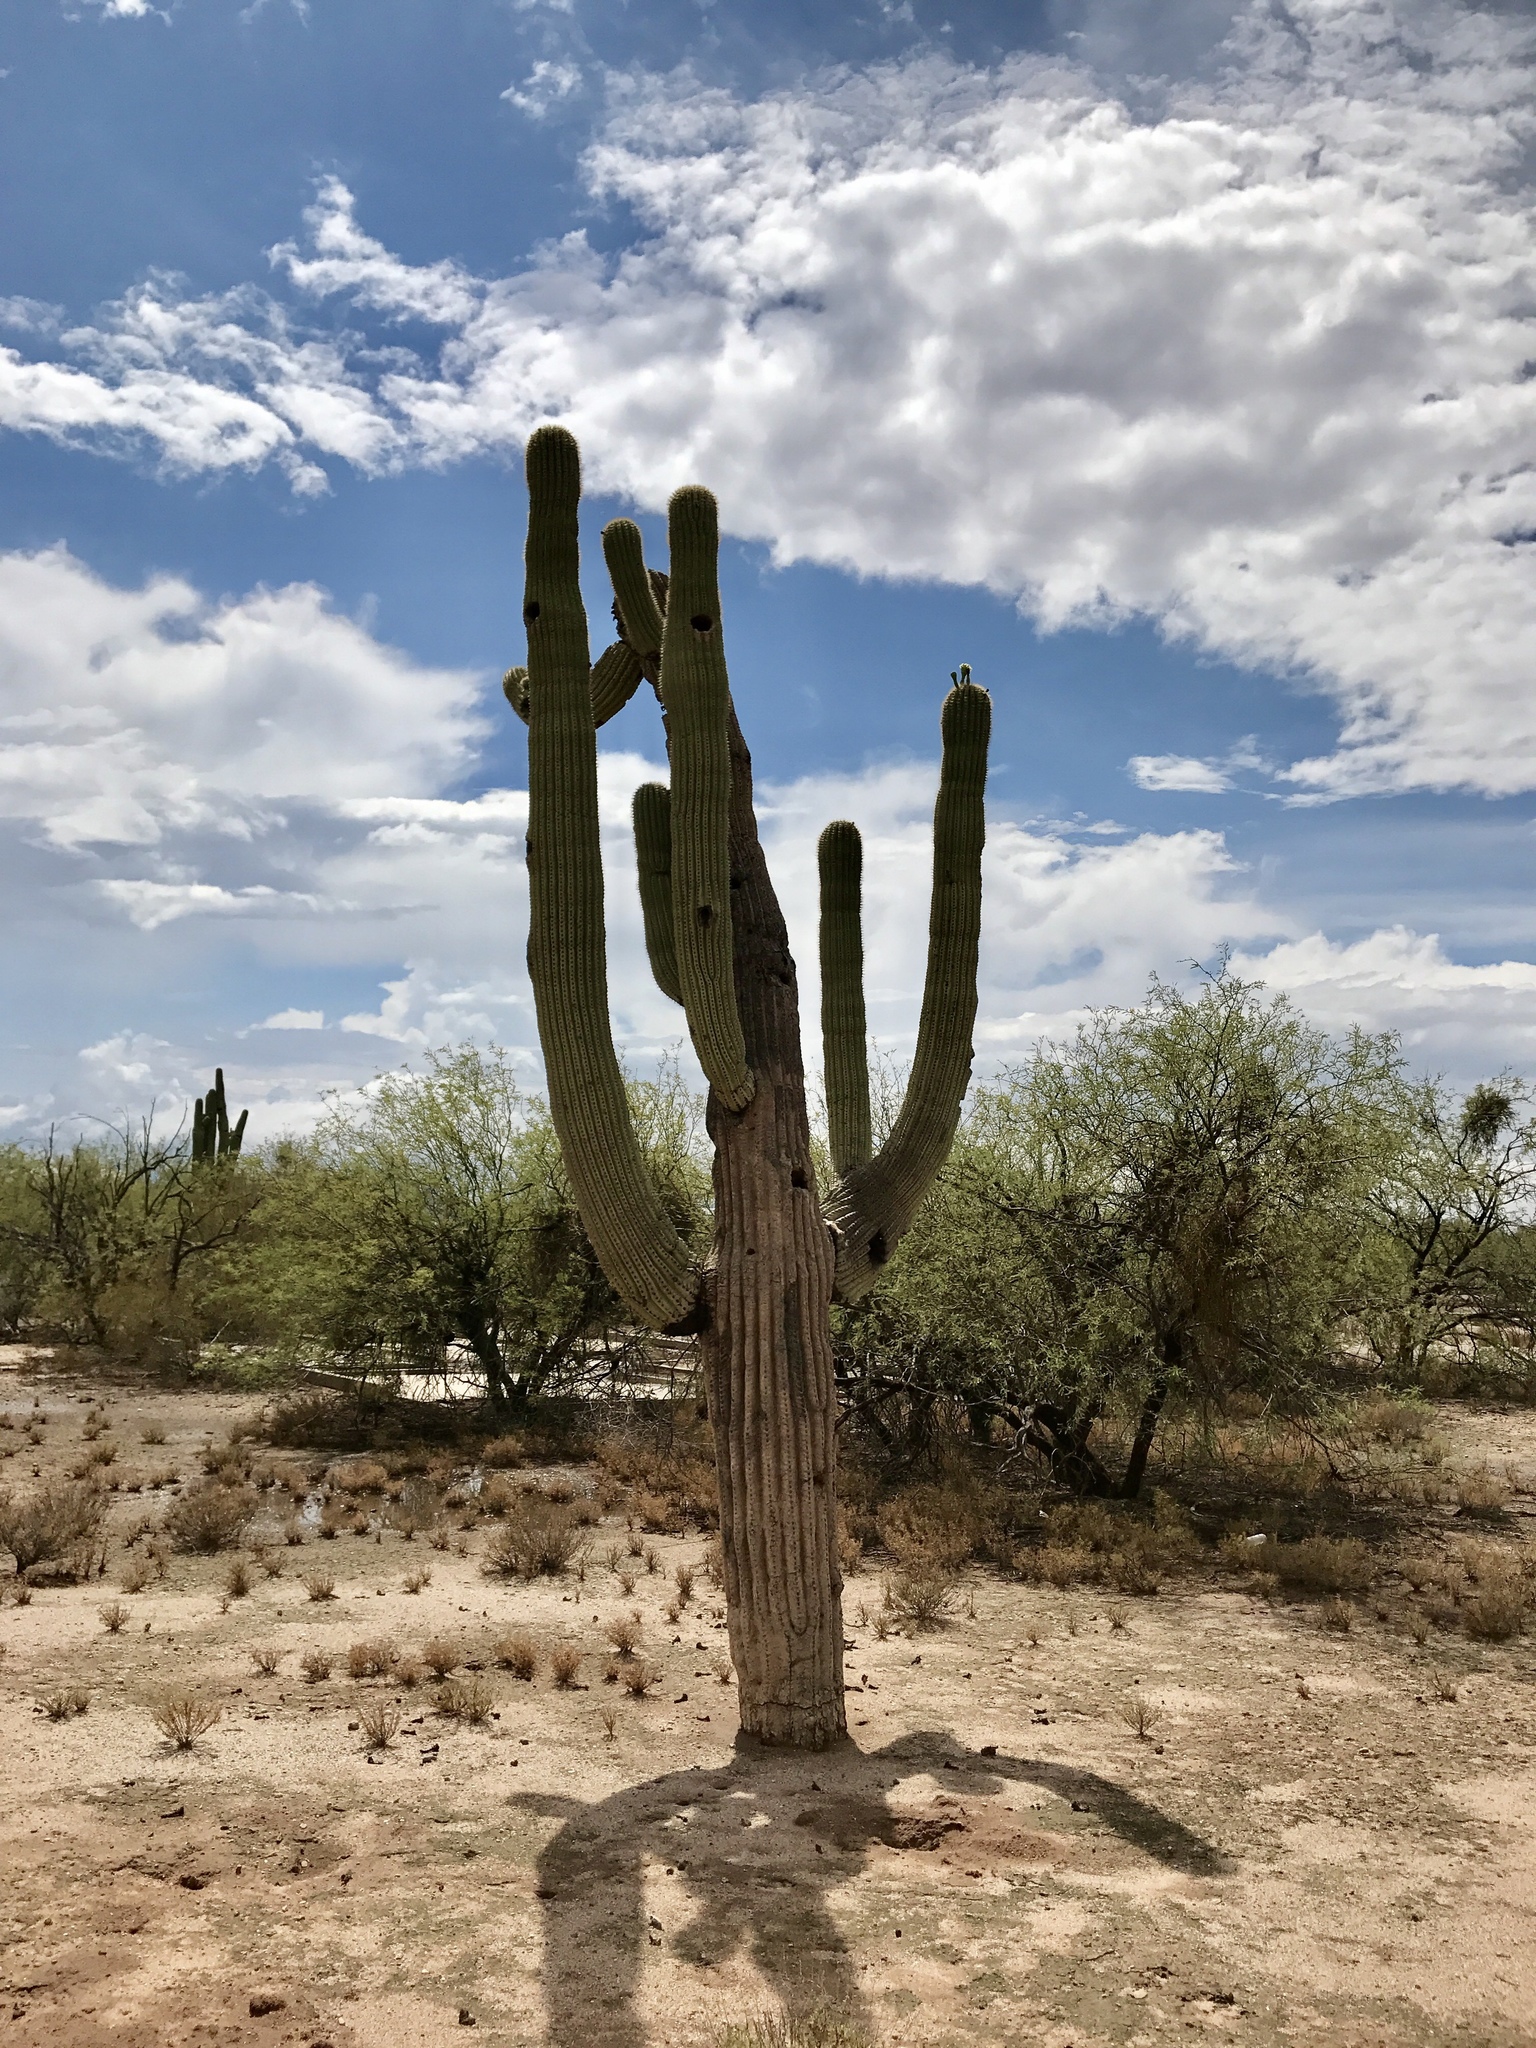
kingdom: Plantae
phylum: Tracheophyta
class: Magnoliopsida
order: Caryophyllales
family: Cactaceae
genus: Carnegiea
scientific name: Carnegiea gigantea
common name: Saguaro
